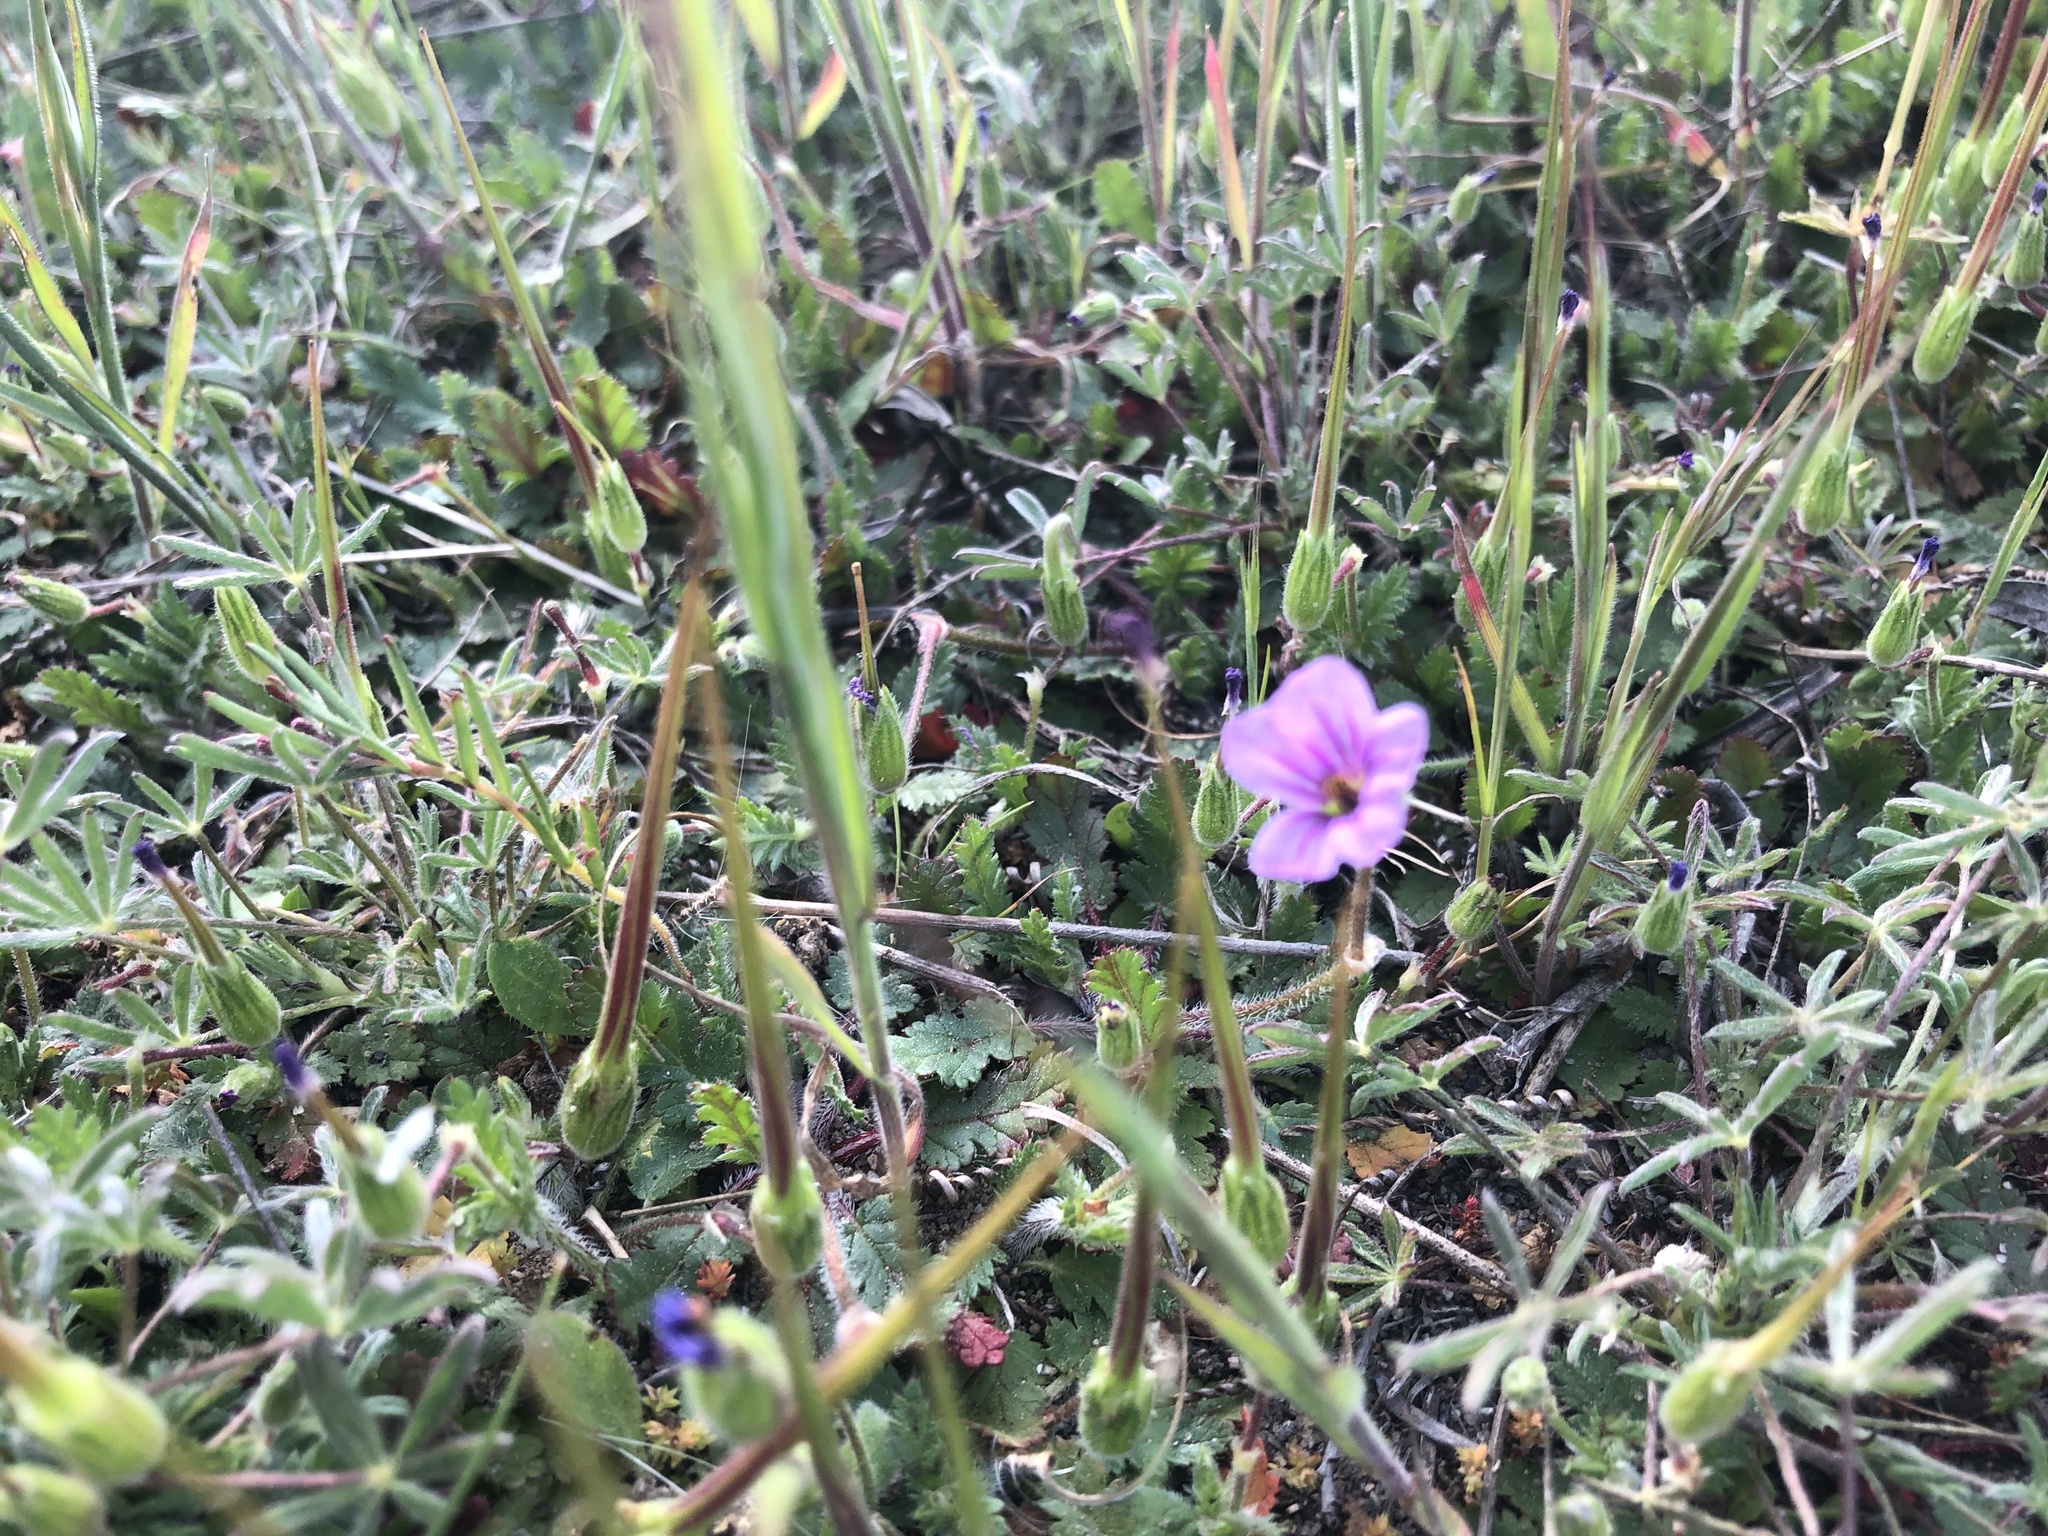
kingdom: Plantae
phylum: Tracheophyta
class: Magnoliopsida
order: Geraniales
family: Geraniaceae
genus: Erodium
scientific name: Erodium botrys
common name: Mediterranean stork's-bill
